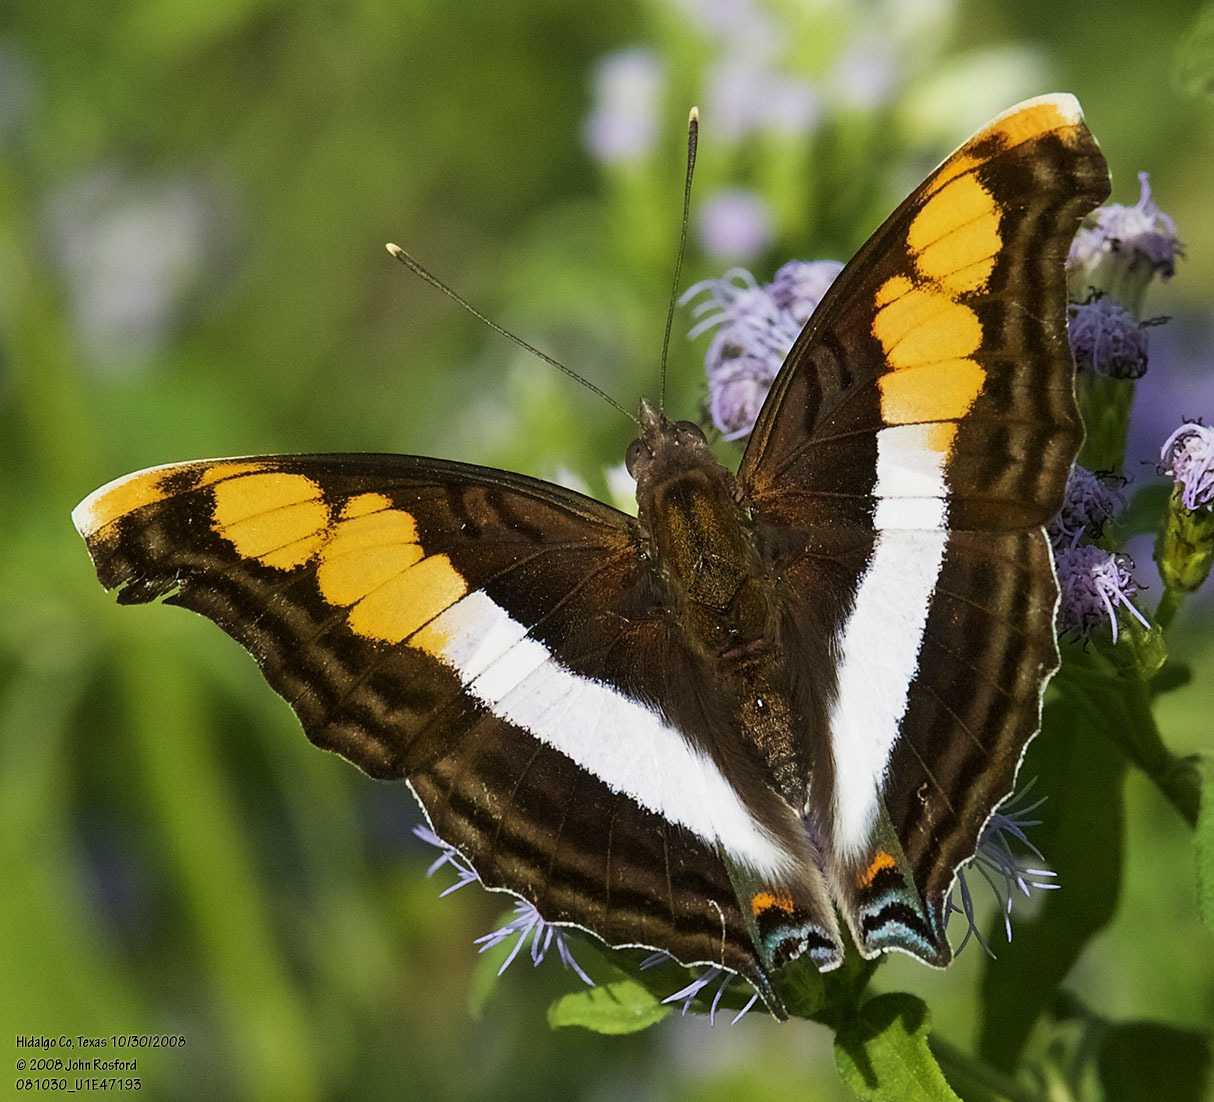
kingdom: Animalia
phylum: Arthropoda
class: Insecta
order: Lepidoptera
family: Nymphalidae
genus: Doxocopa
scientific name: Doxocopa laure
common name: Silver emperor
